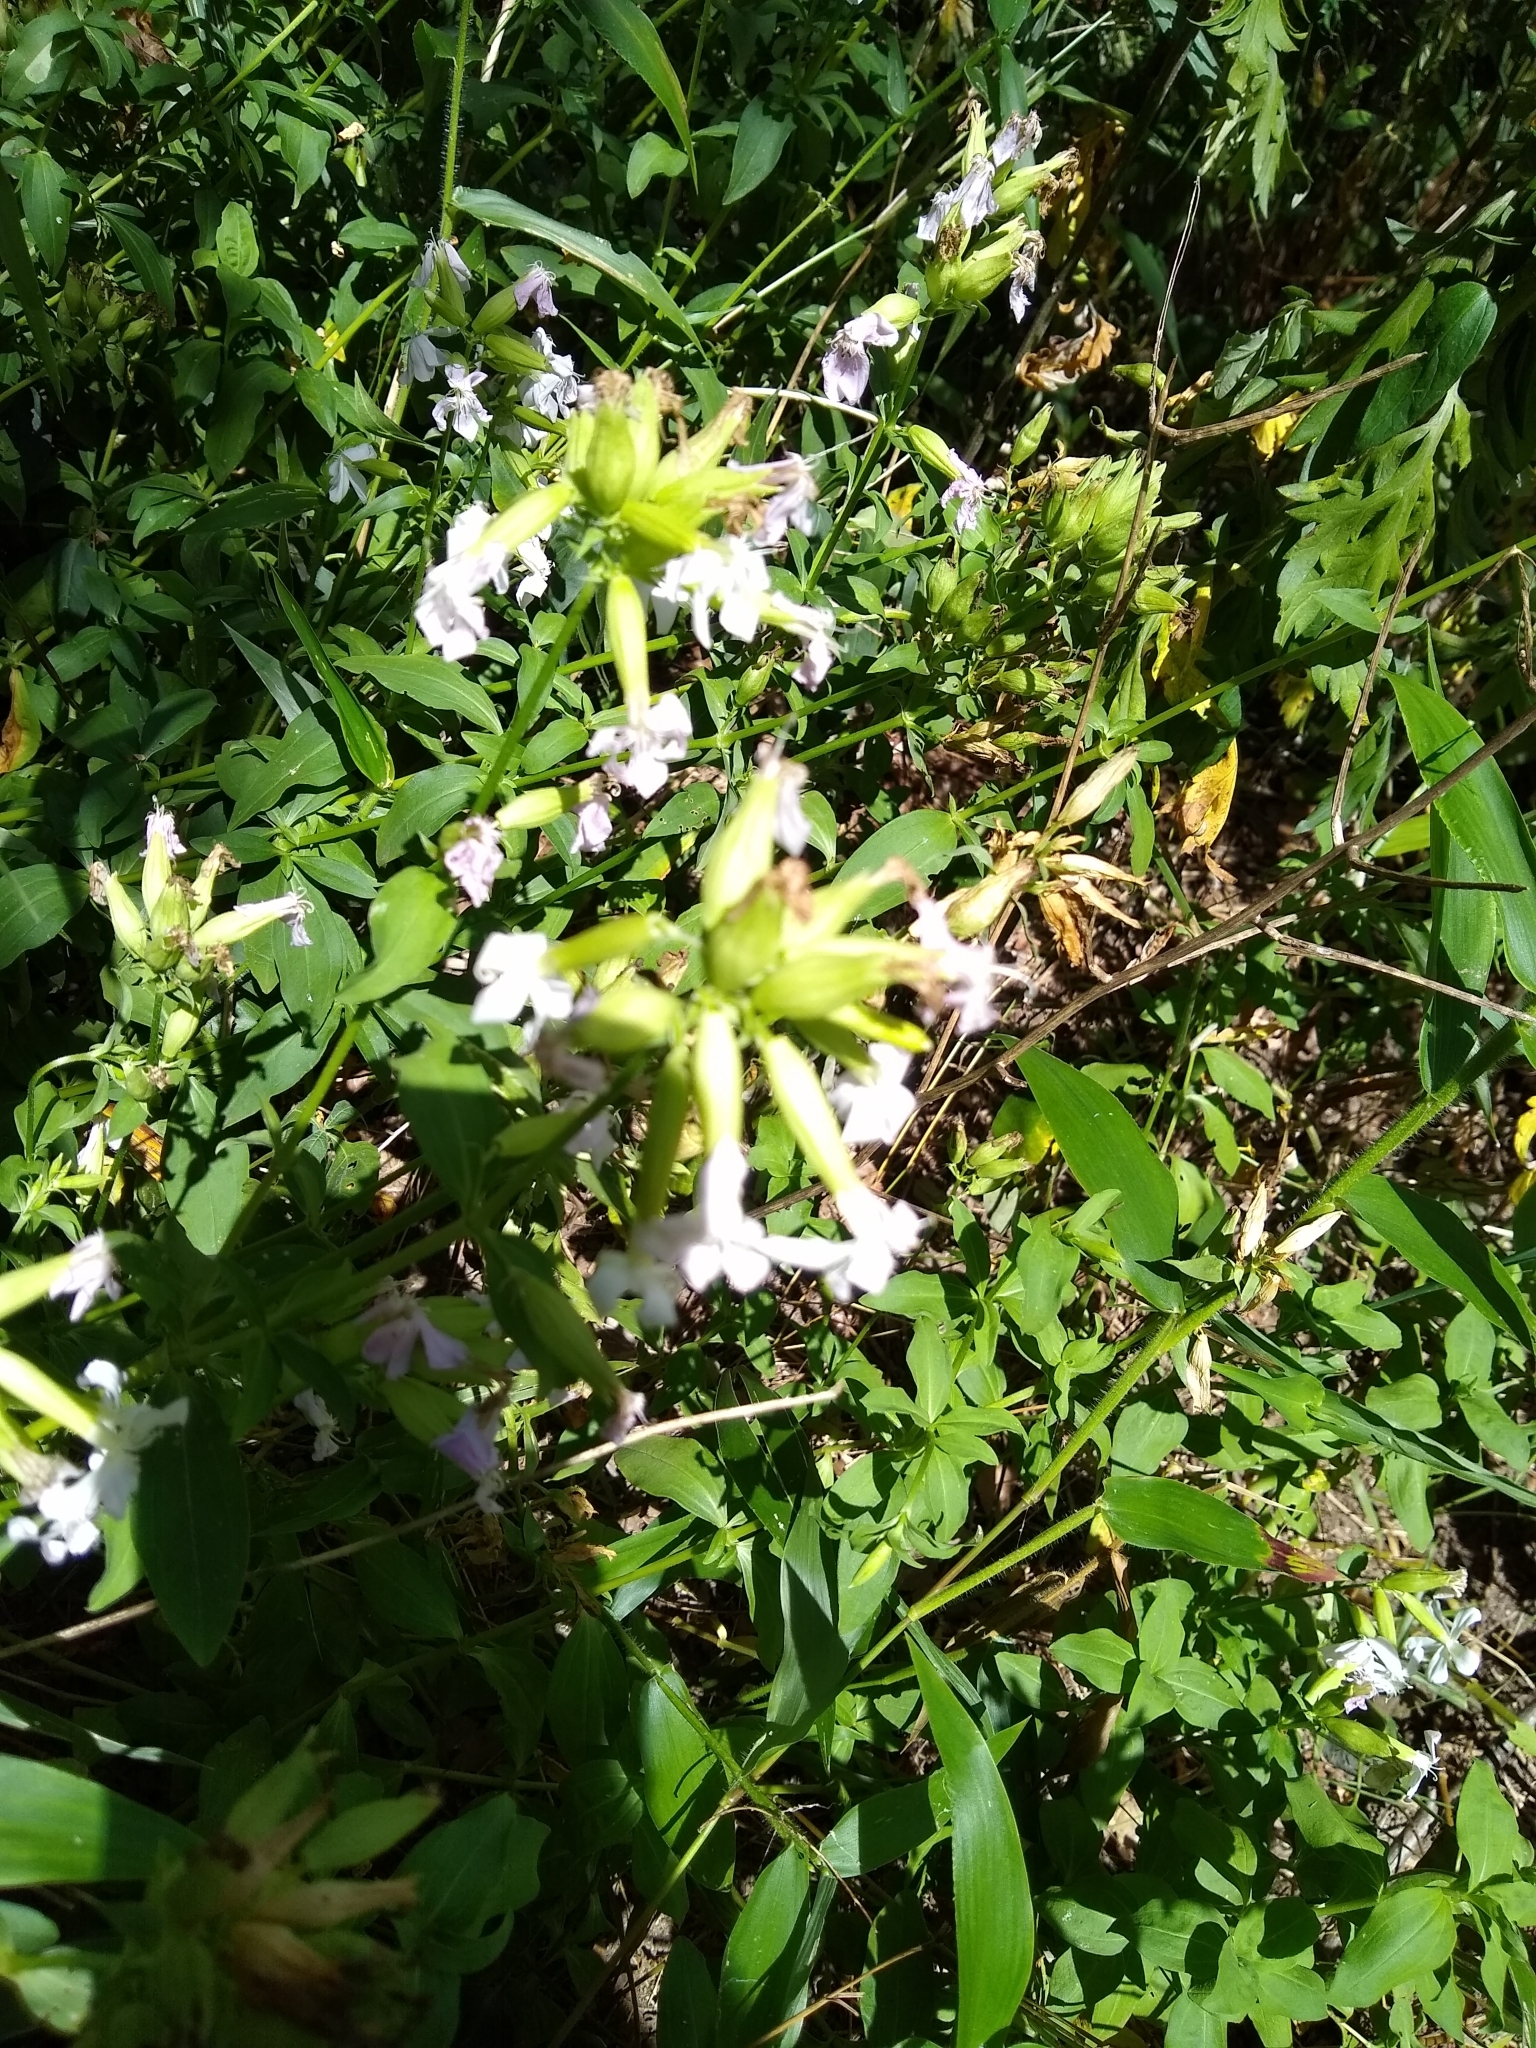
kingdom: Plantae
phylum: Tracheophyta
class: Magnoliopsida
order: Caryophyllales
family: Caryophyllaceae
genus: Saponaria
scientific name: Saponaria officinalis
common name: Soapwort
